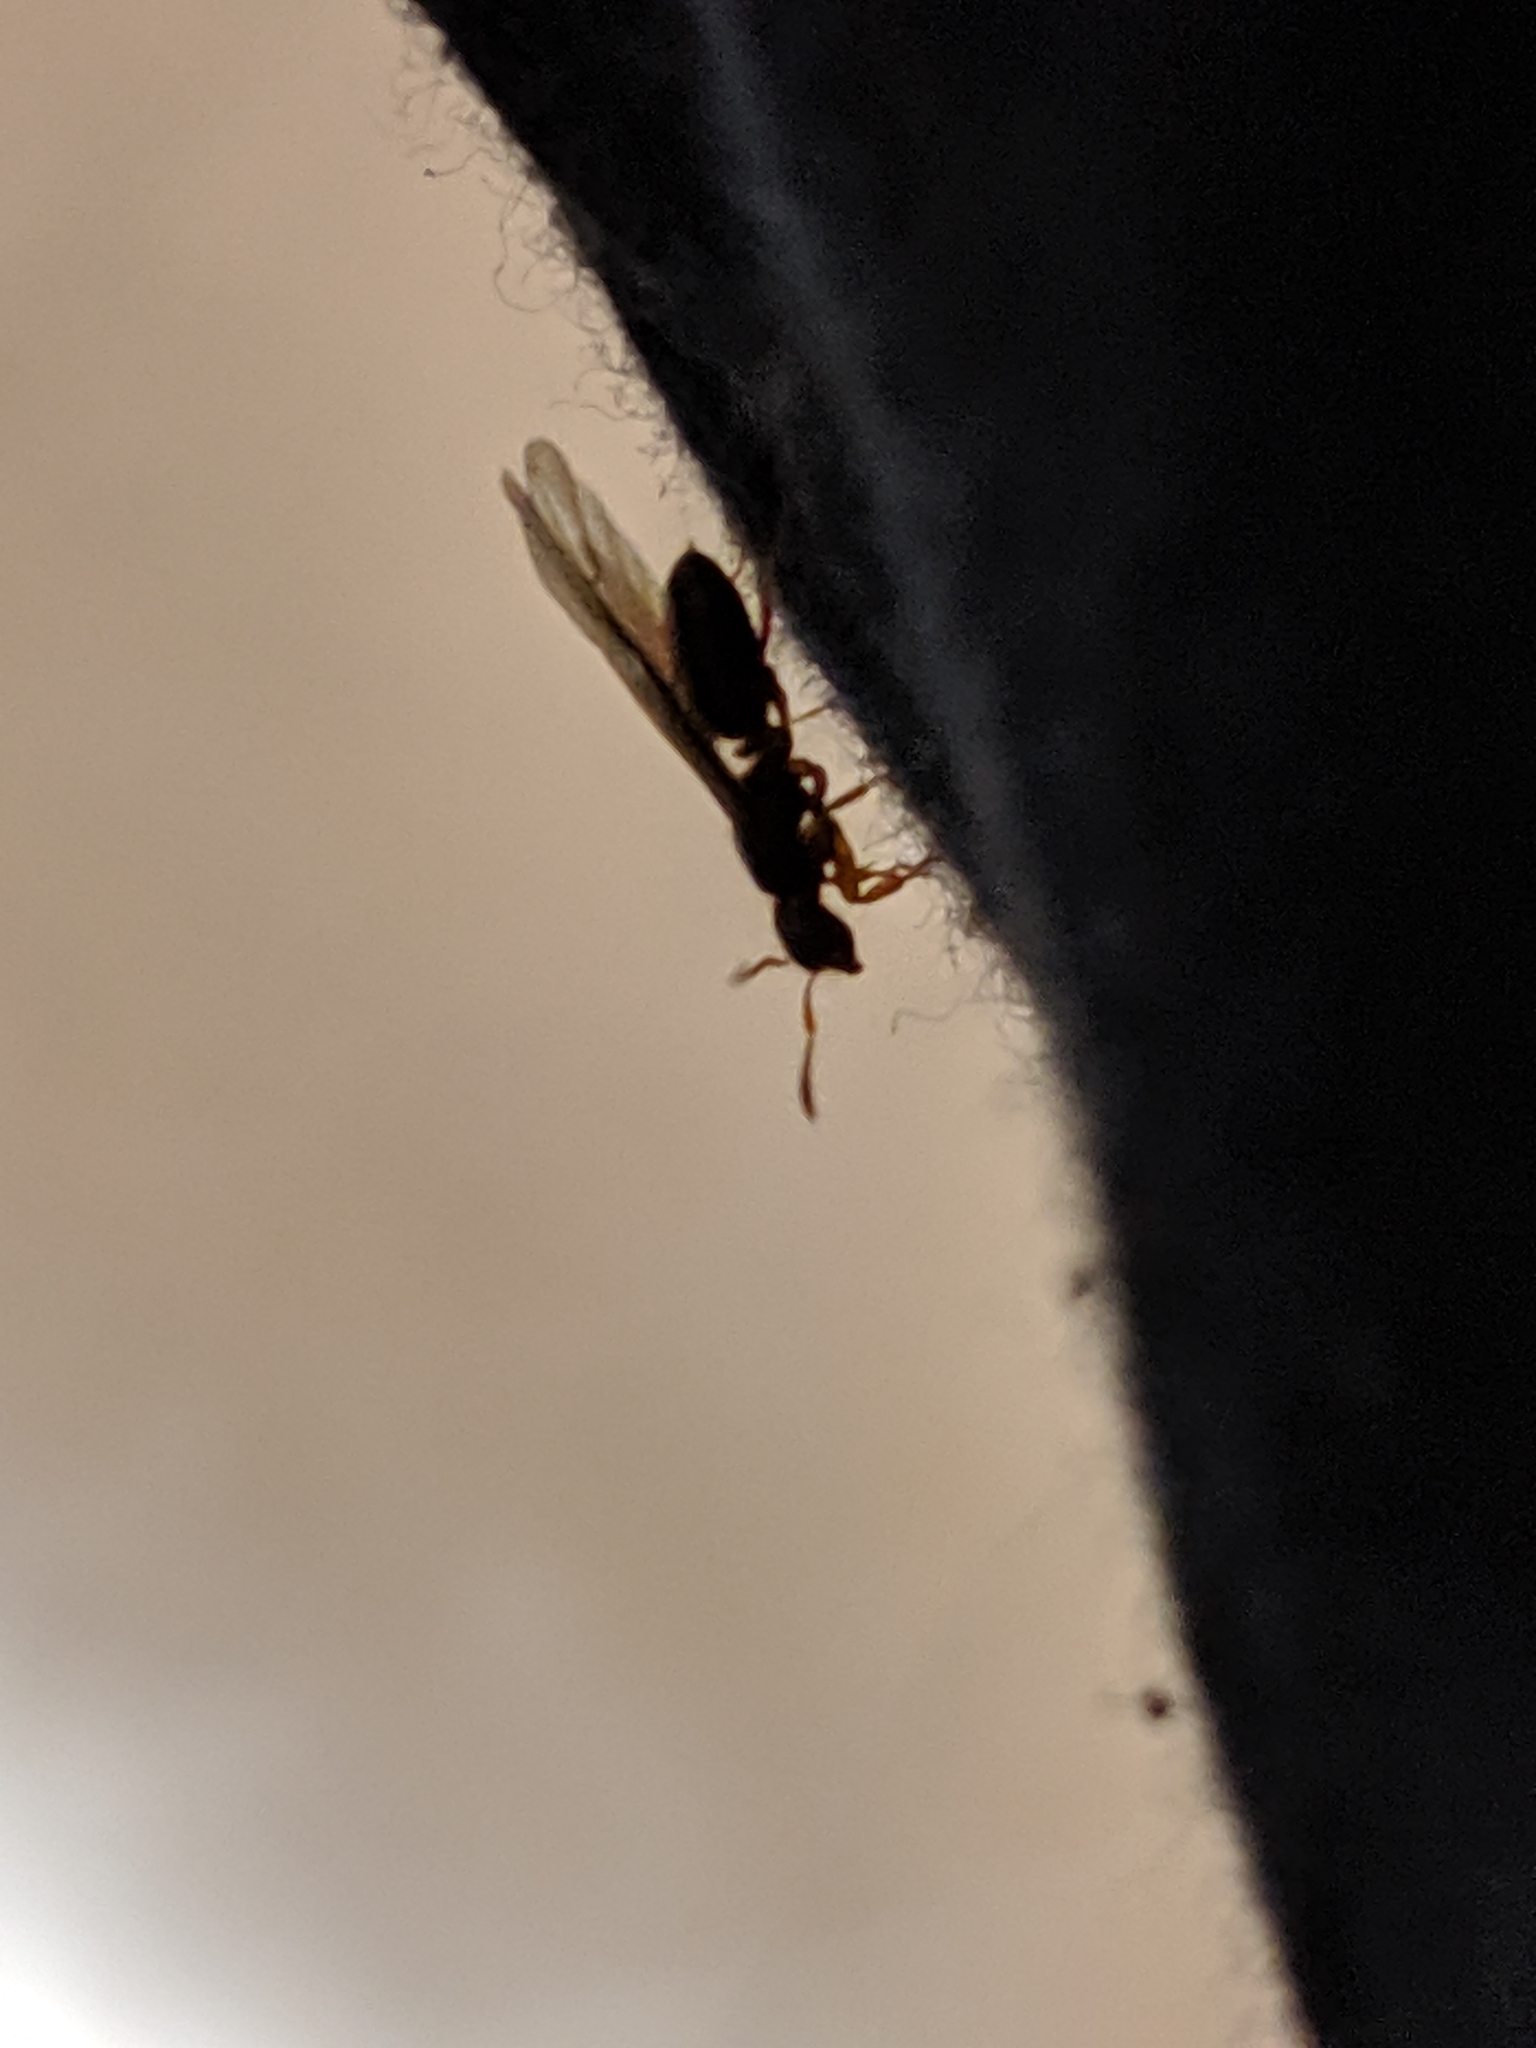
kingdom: Animalia
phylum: Arthropoda
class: Insecta
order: Hymenoptera
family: Formicidae
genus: Lasius
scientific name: Lasius
